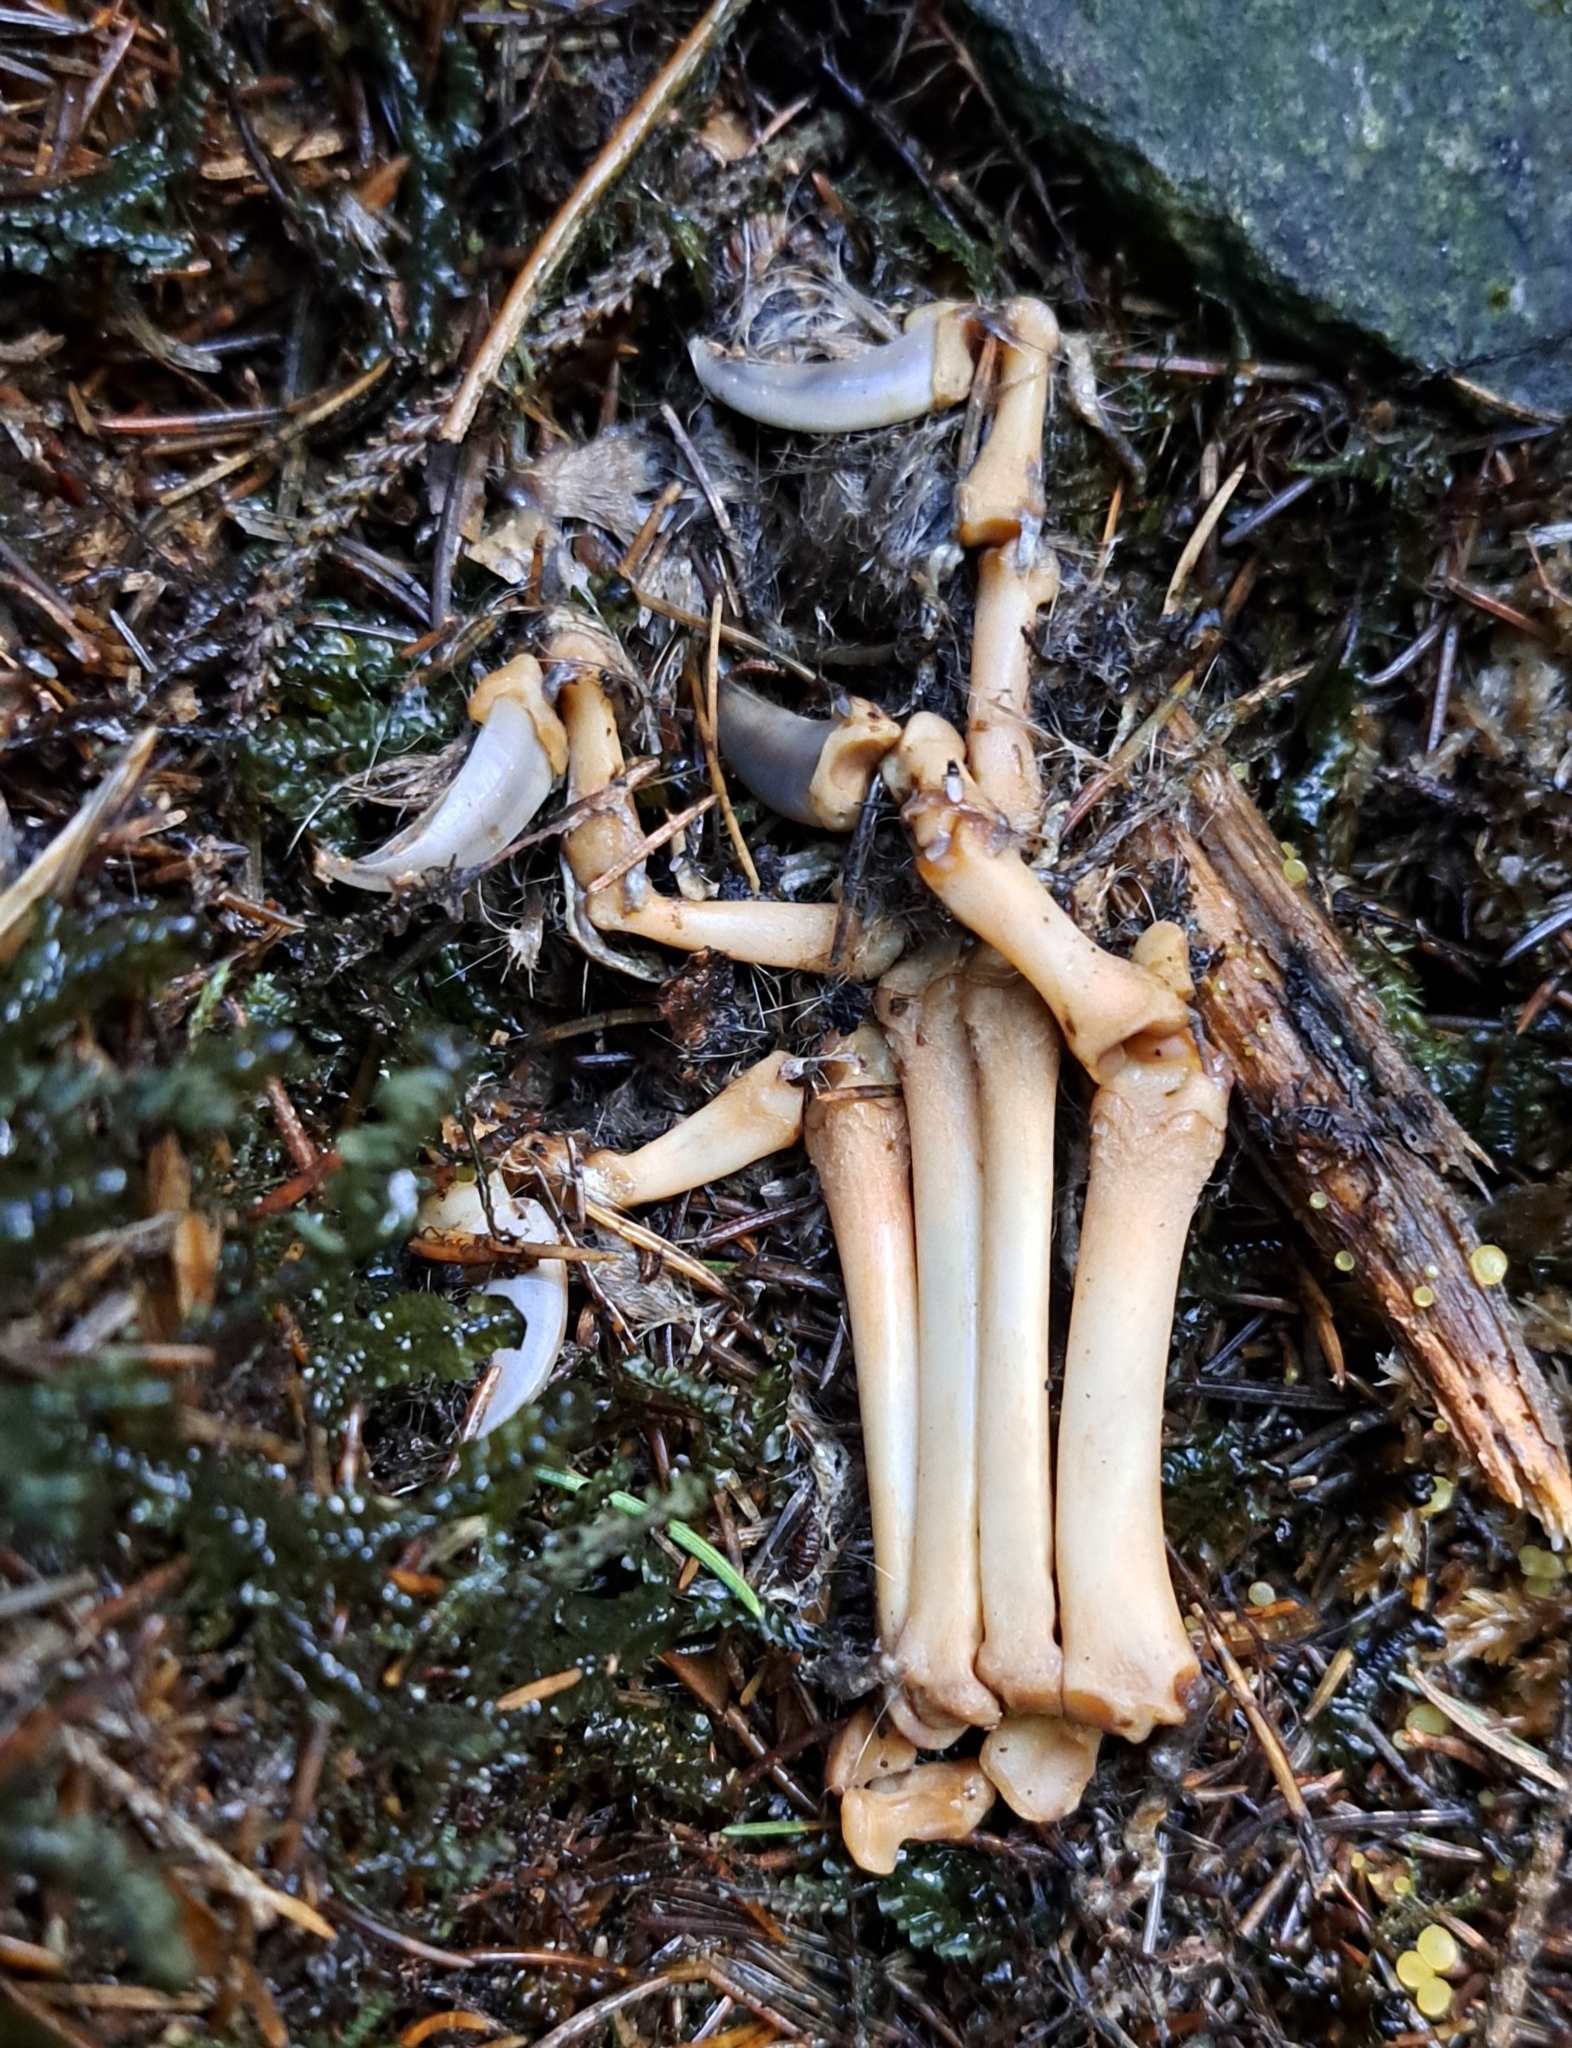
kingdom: Animalia
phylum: Chordata
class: Mammalia
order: Carnivora
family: Canidae
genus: Canis
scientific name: Canis lupus
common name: Gray wolf
